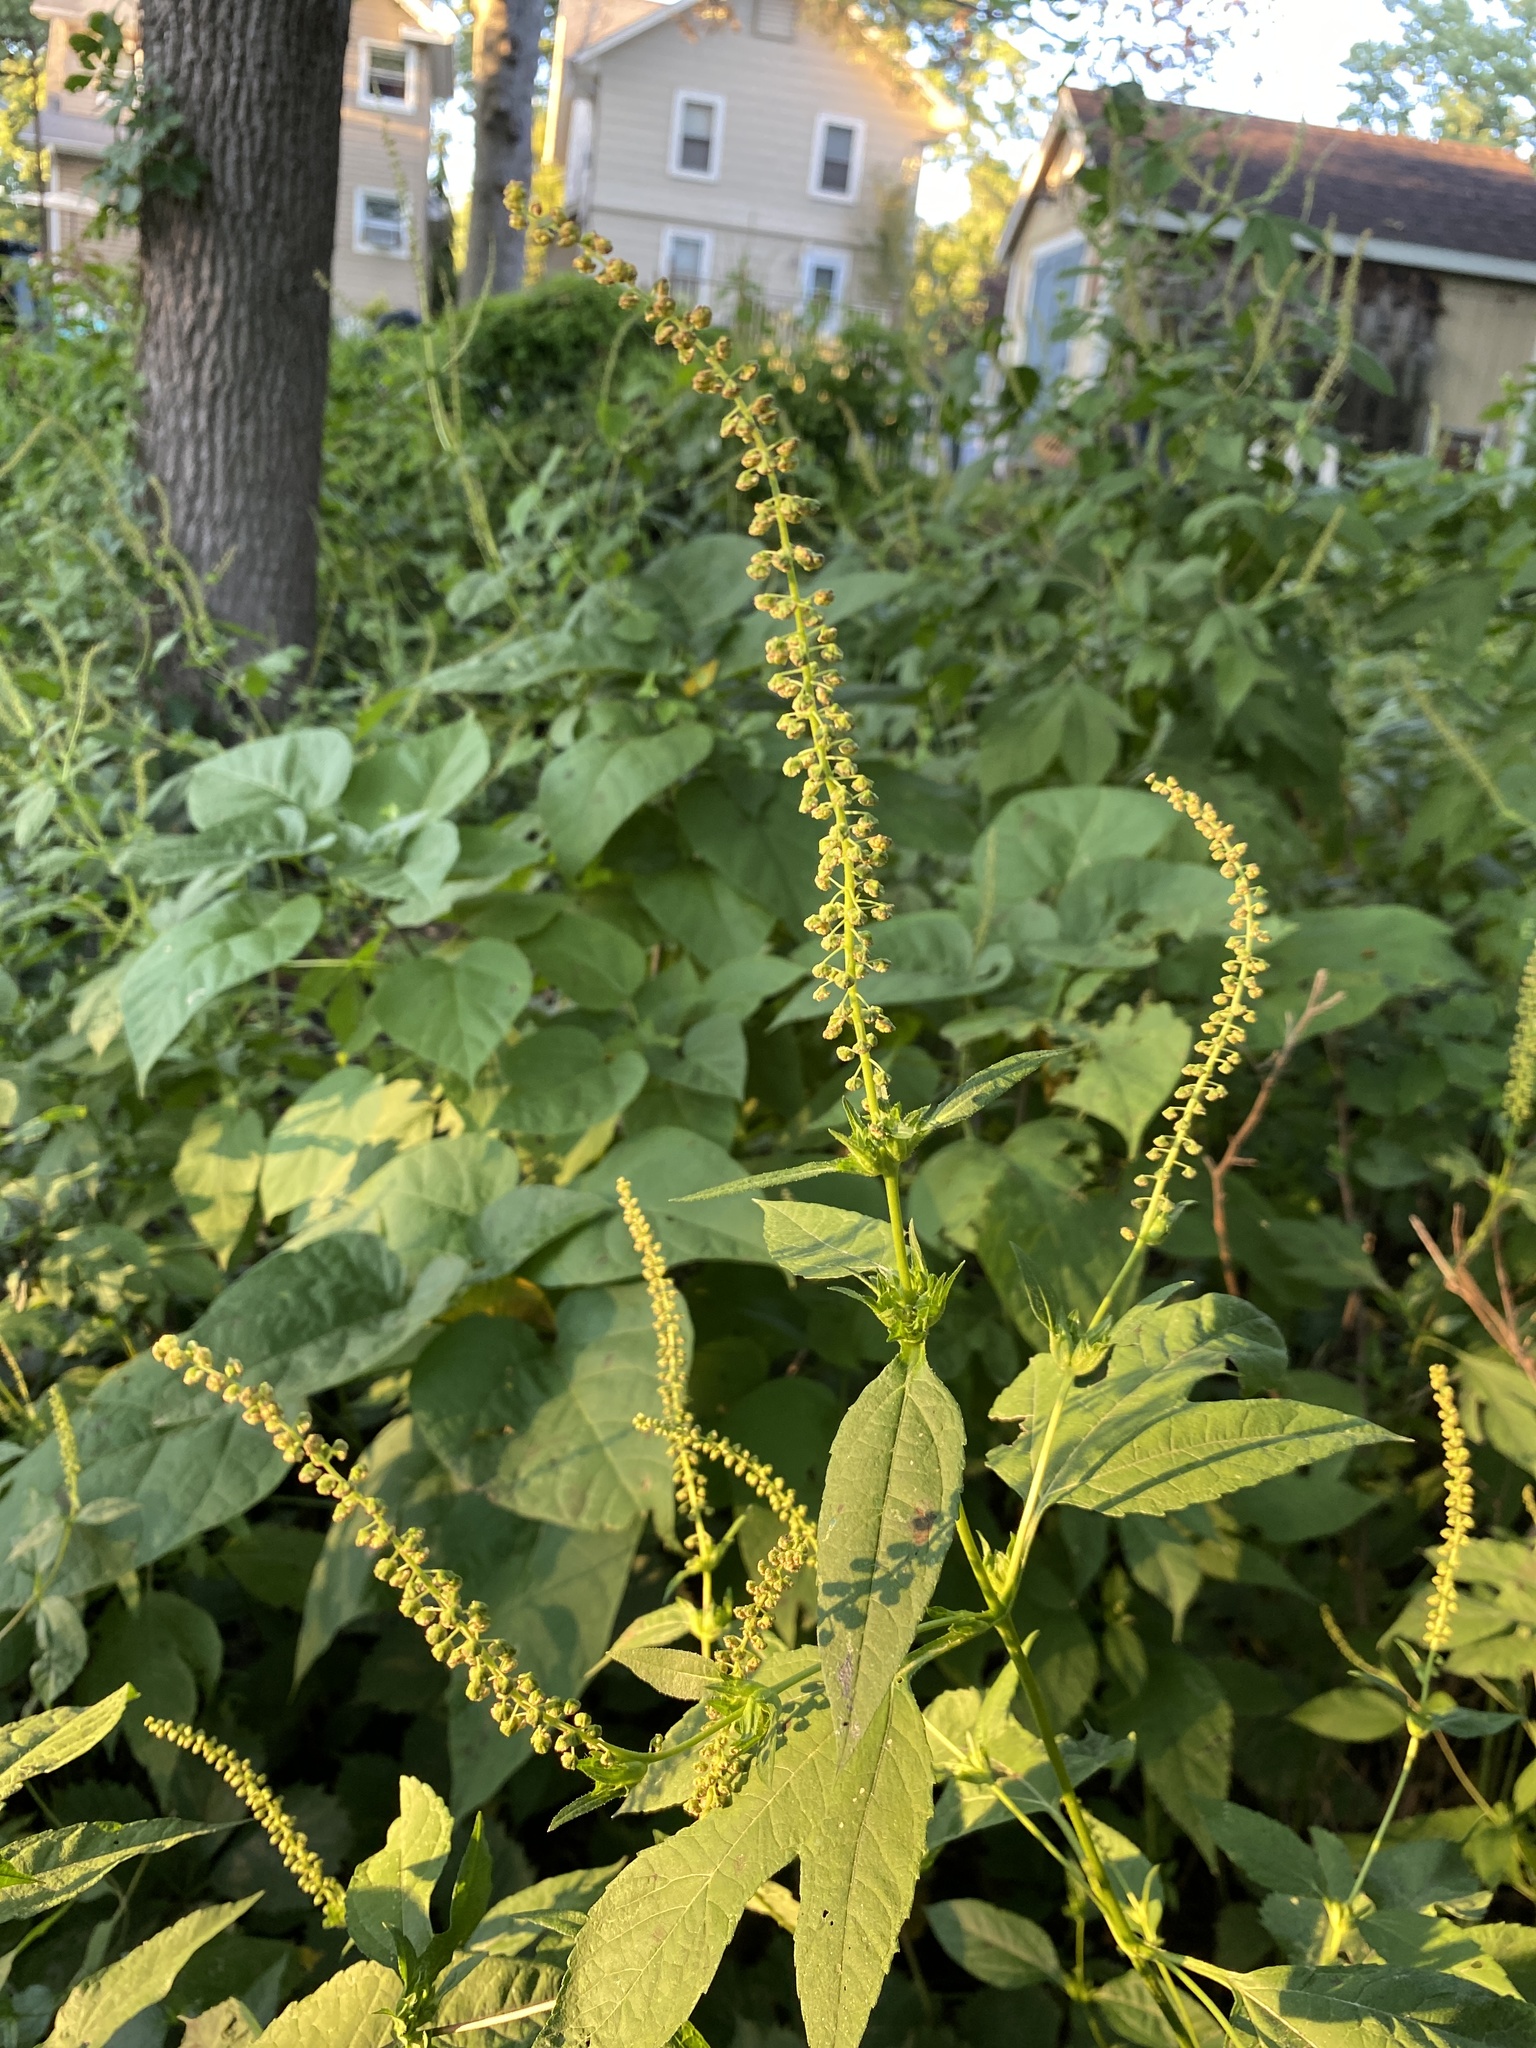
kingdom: Plantae
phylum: Tracheophyta
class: Magnoliopsida
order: Asterales
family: Asteraceae
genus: Ambrosia
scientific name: Ambrosia trifida
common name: Giant ragweed
